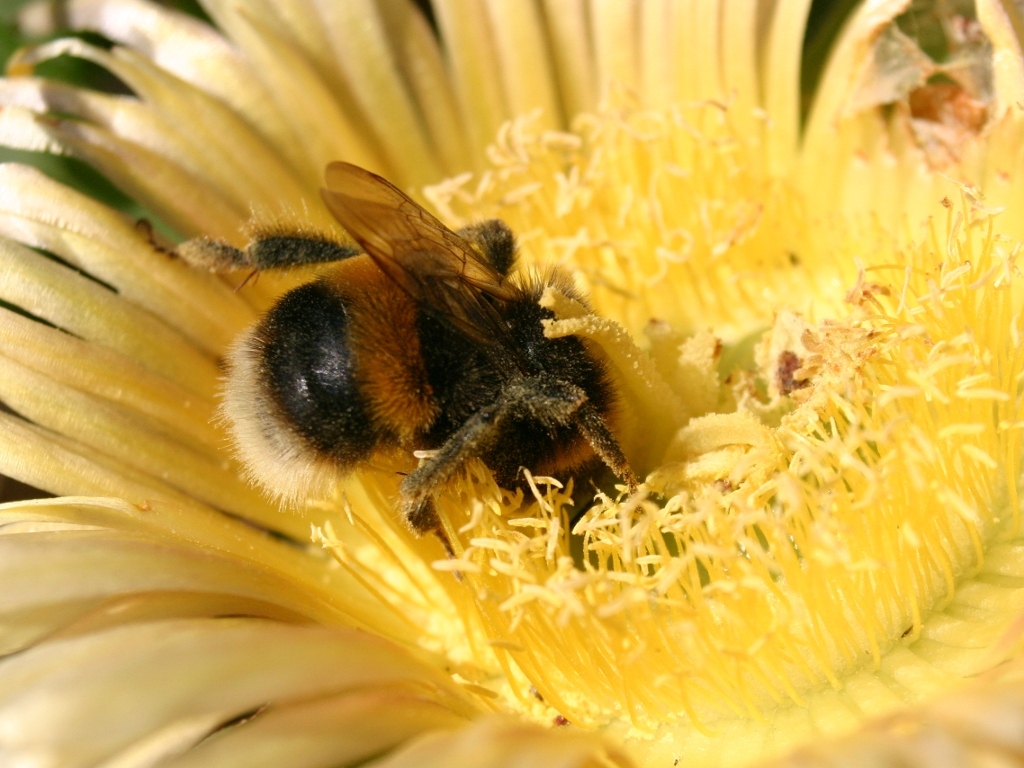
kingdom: Animalia
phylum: Arthropoda
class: Insecta
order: Hymenoptera
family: Apidae
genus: Bombus
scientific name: Bombus terrestris
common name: Buff-tailed bumblebee
